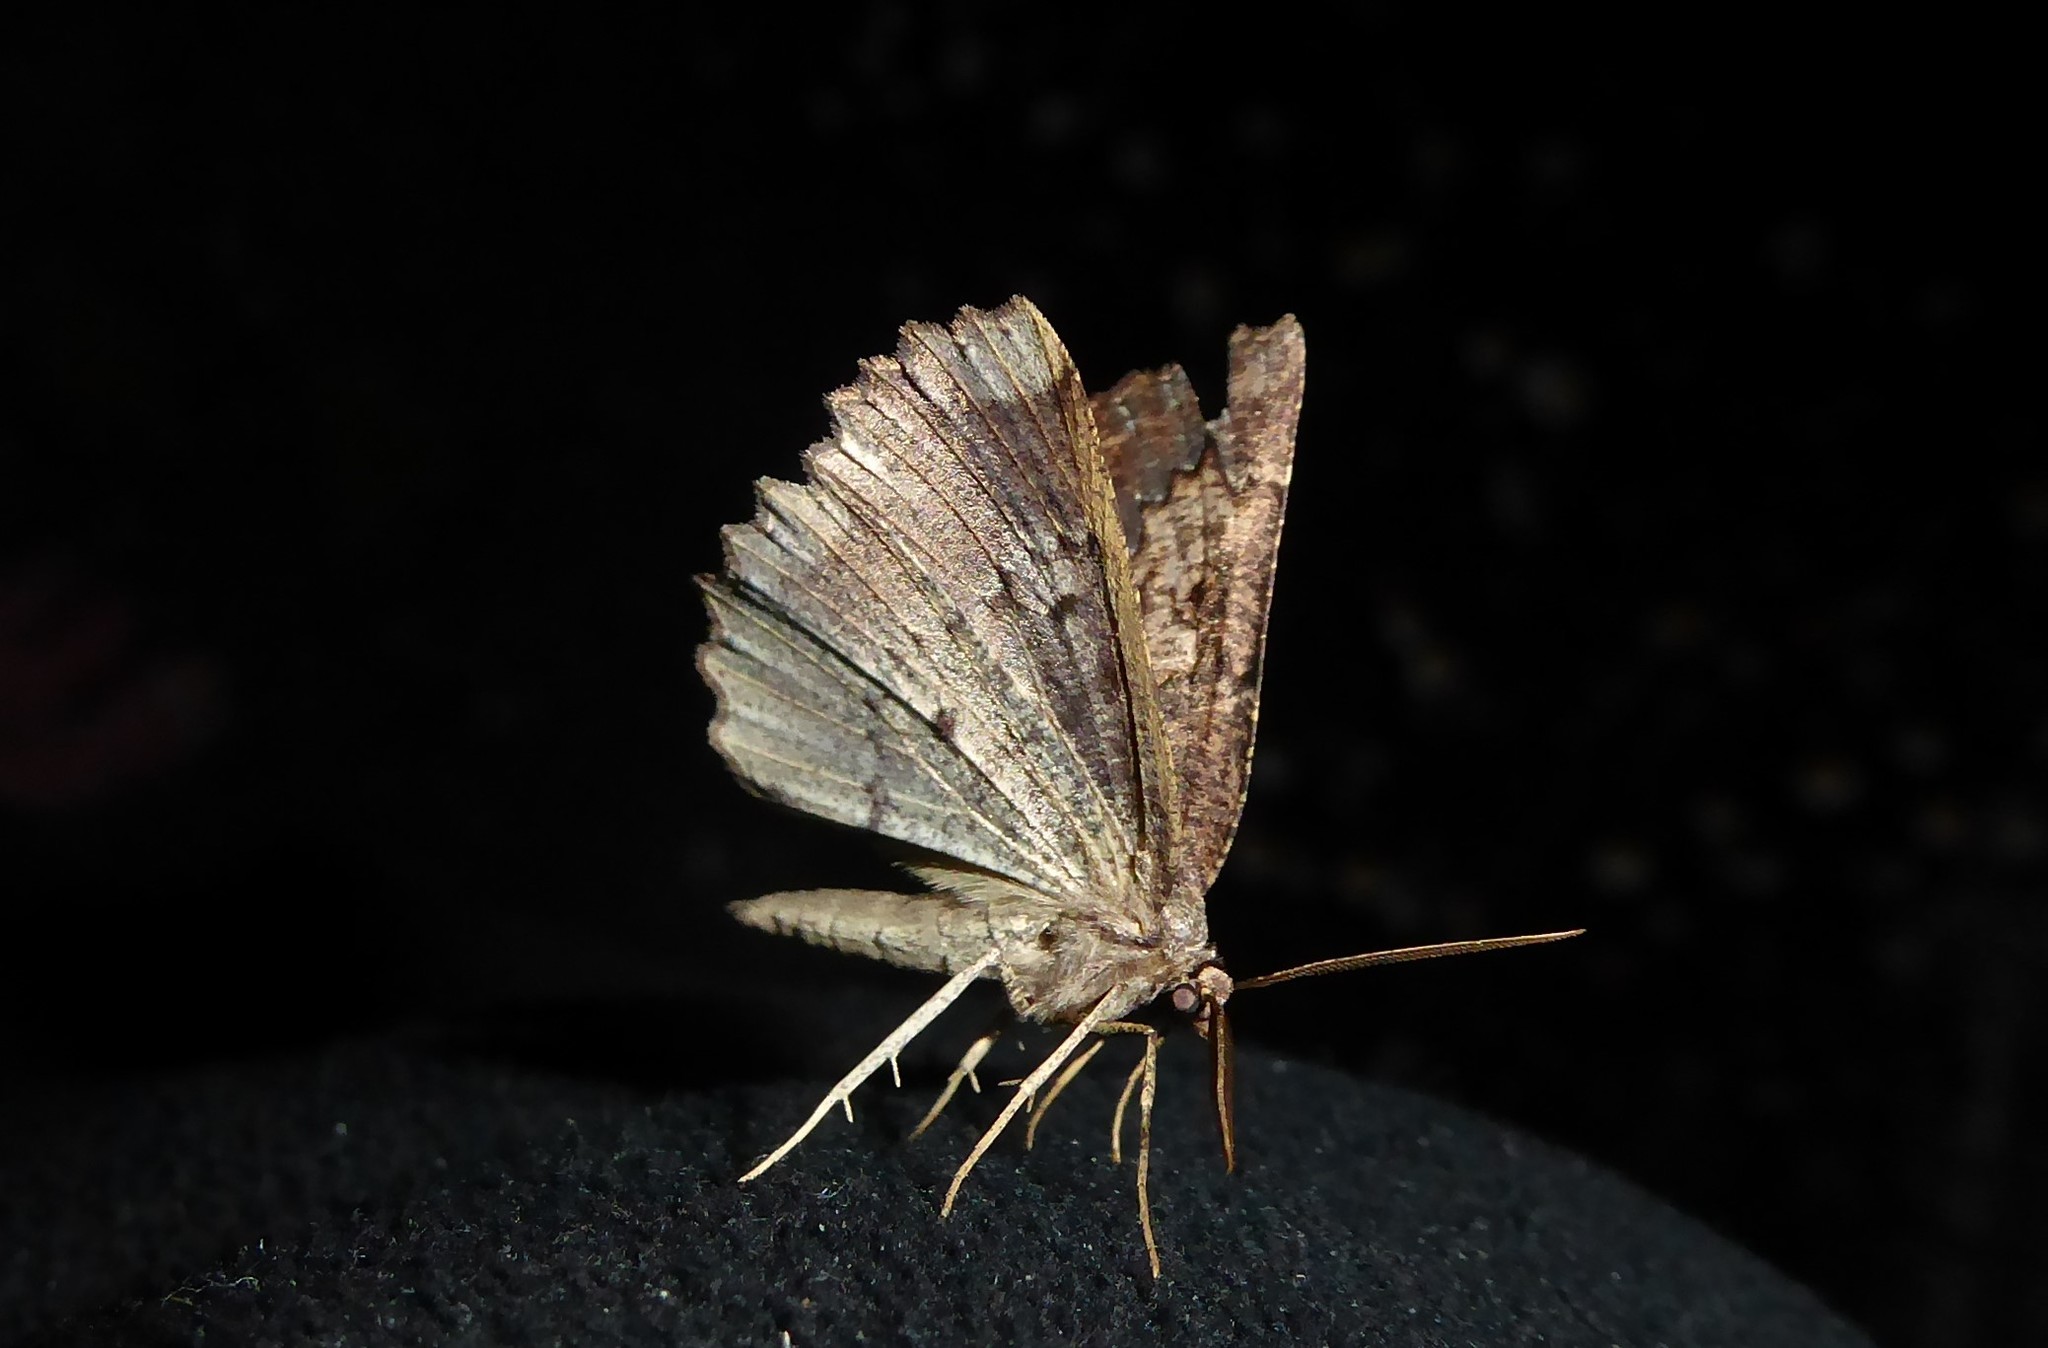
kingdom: Animalia
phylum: Arthropoda
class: Insecta
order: Lepidoptera
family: Geometridae
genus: Gellonia
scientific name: Gellonia pannularia
